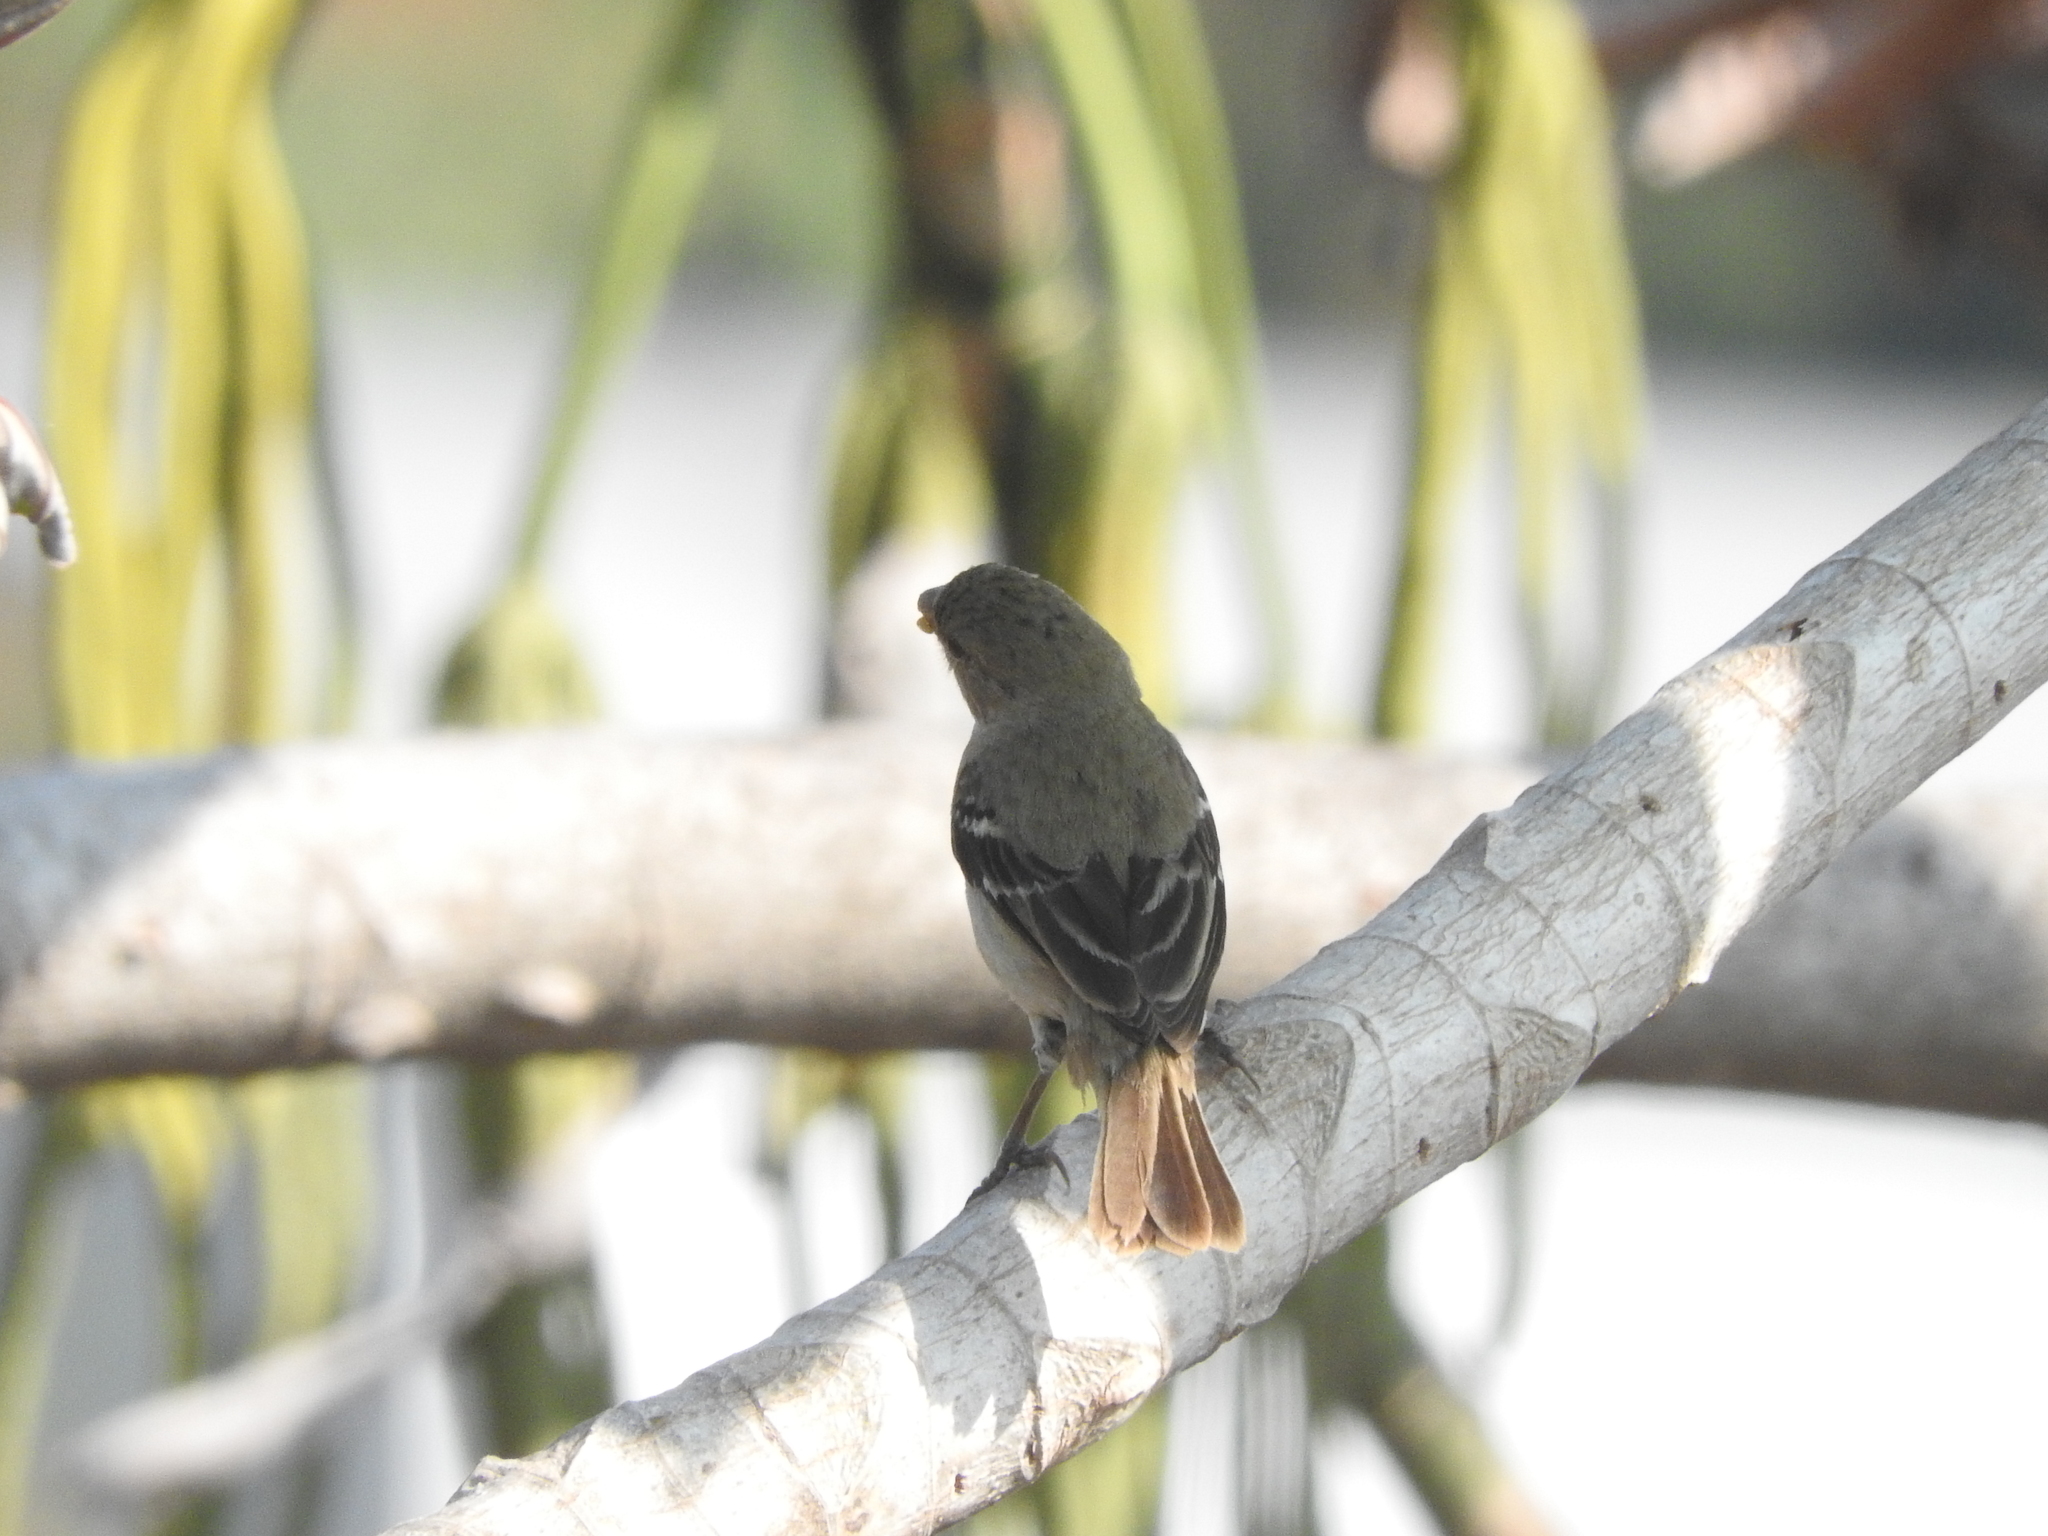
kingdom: Animalia
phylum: Chordata
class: Aves
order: Passeriformes
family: Thraupidae
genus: Sporophila
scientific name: Sporophila morelleti
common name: Morelet's seedeater
